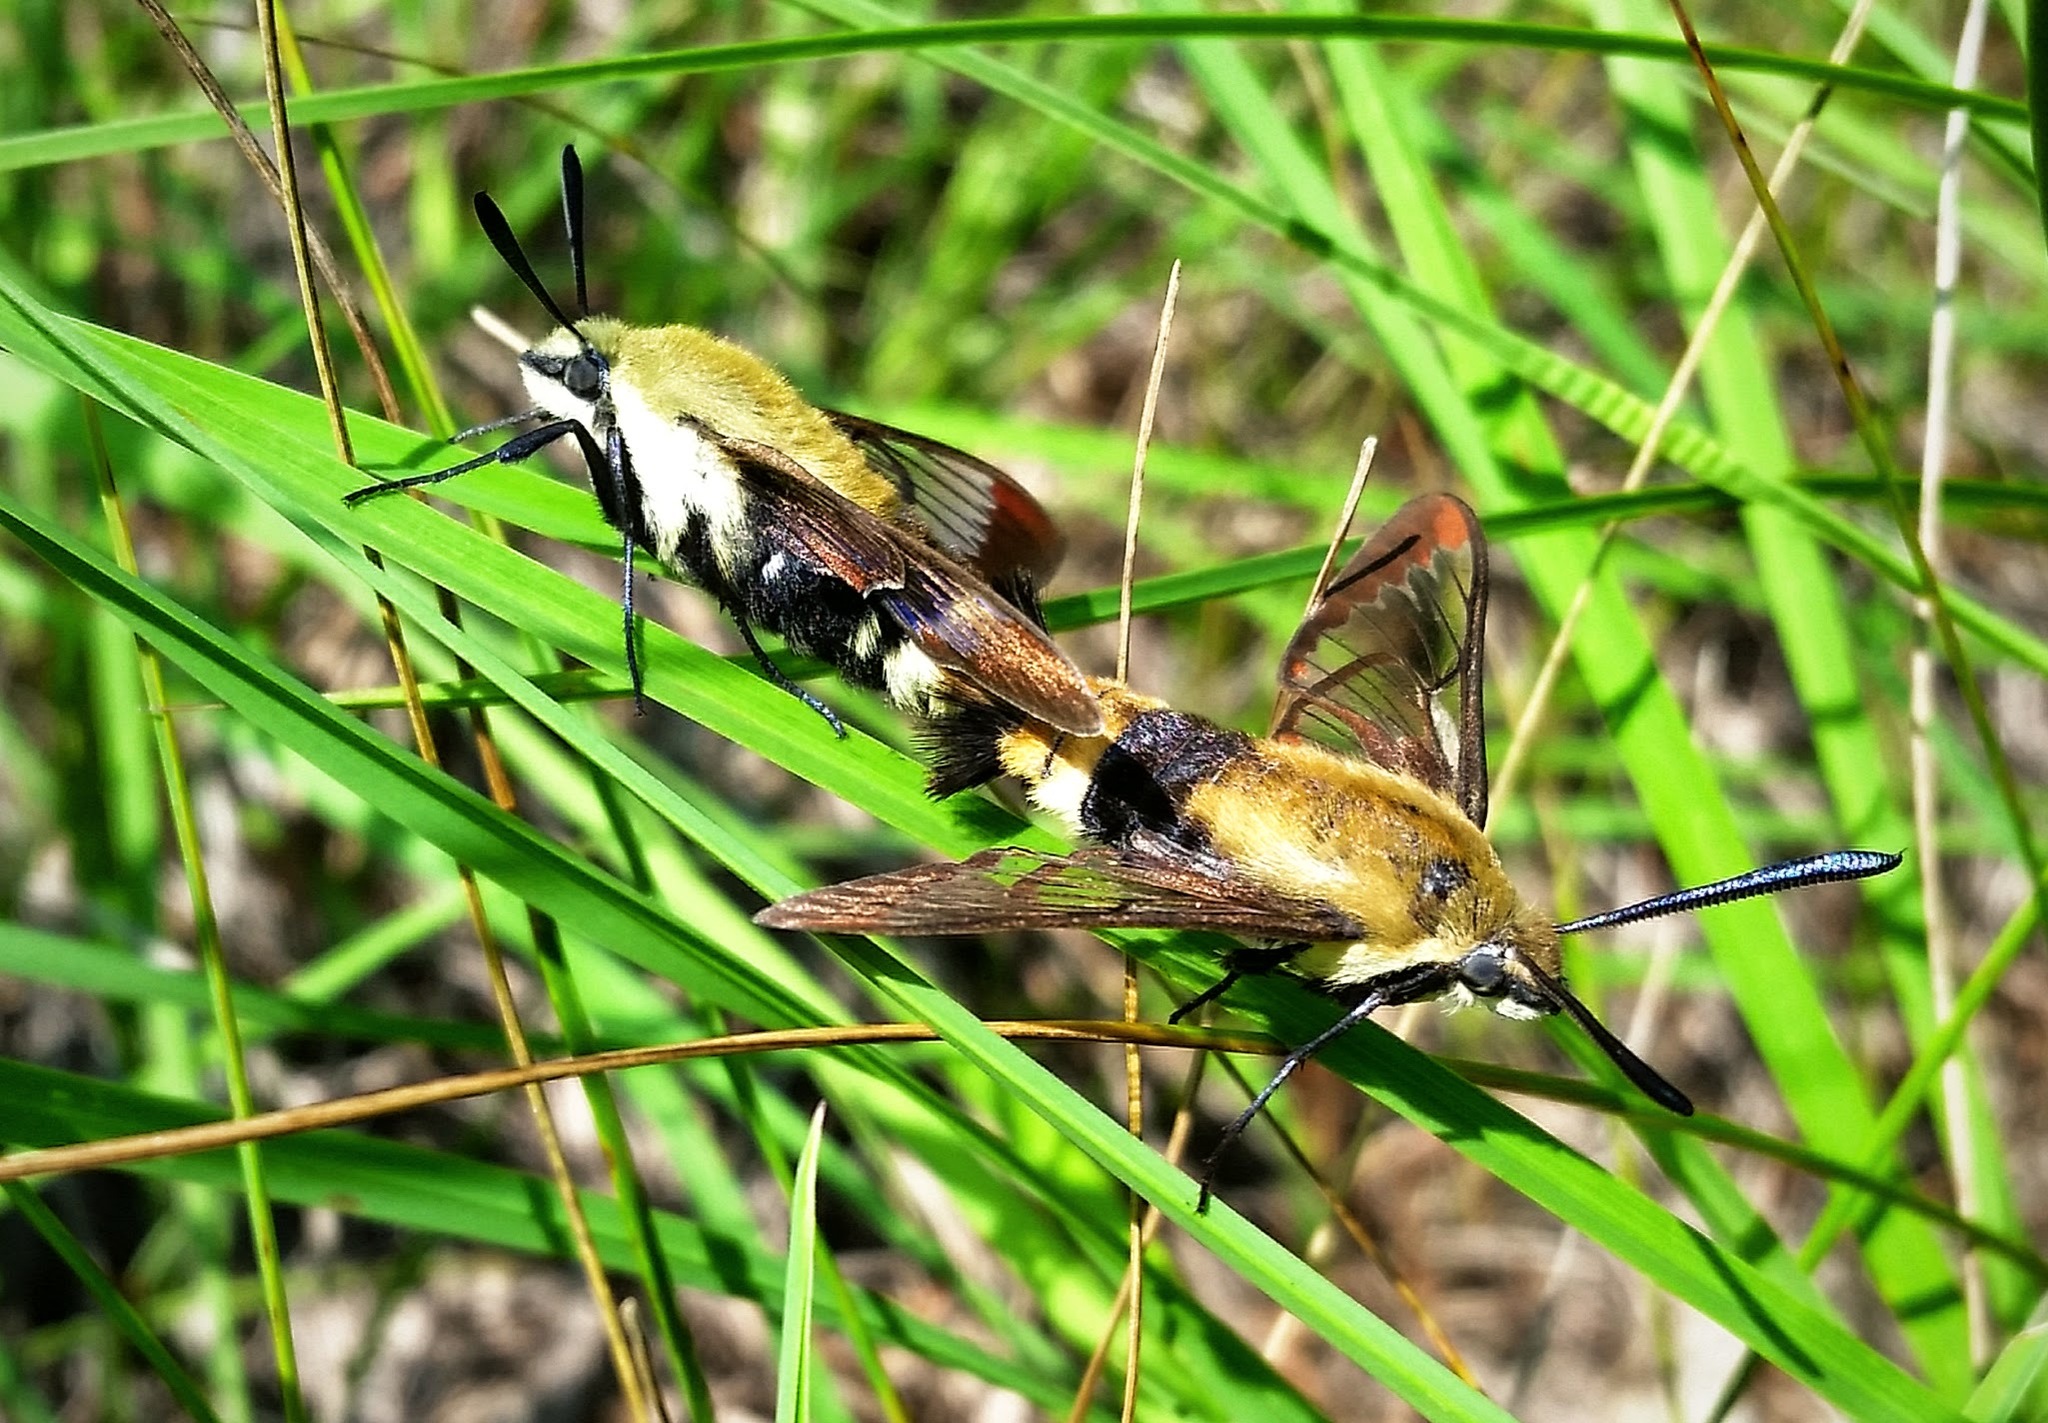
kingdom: Animalia
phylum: Arthropoda
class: Insecta
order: Lepidoptera
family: Sphingidae
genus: Hemaris
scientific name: Hemaris diffinis
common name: Bumblebee moth
